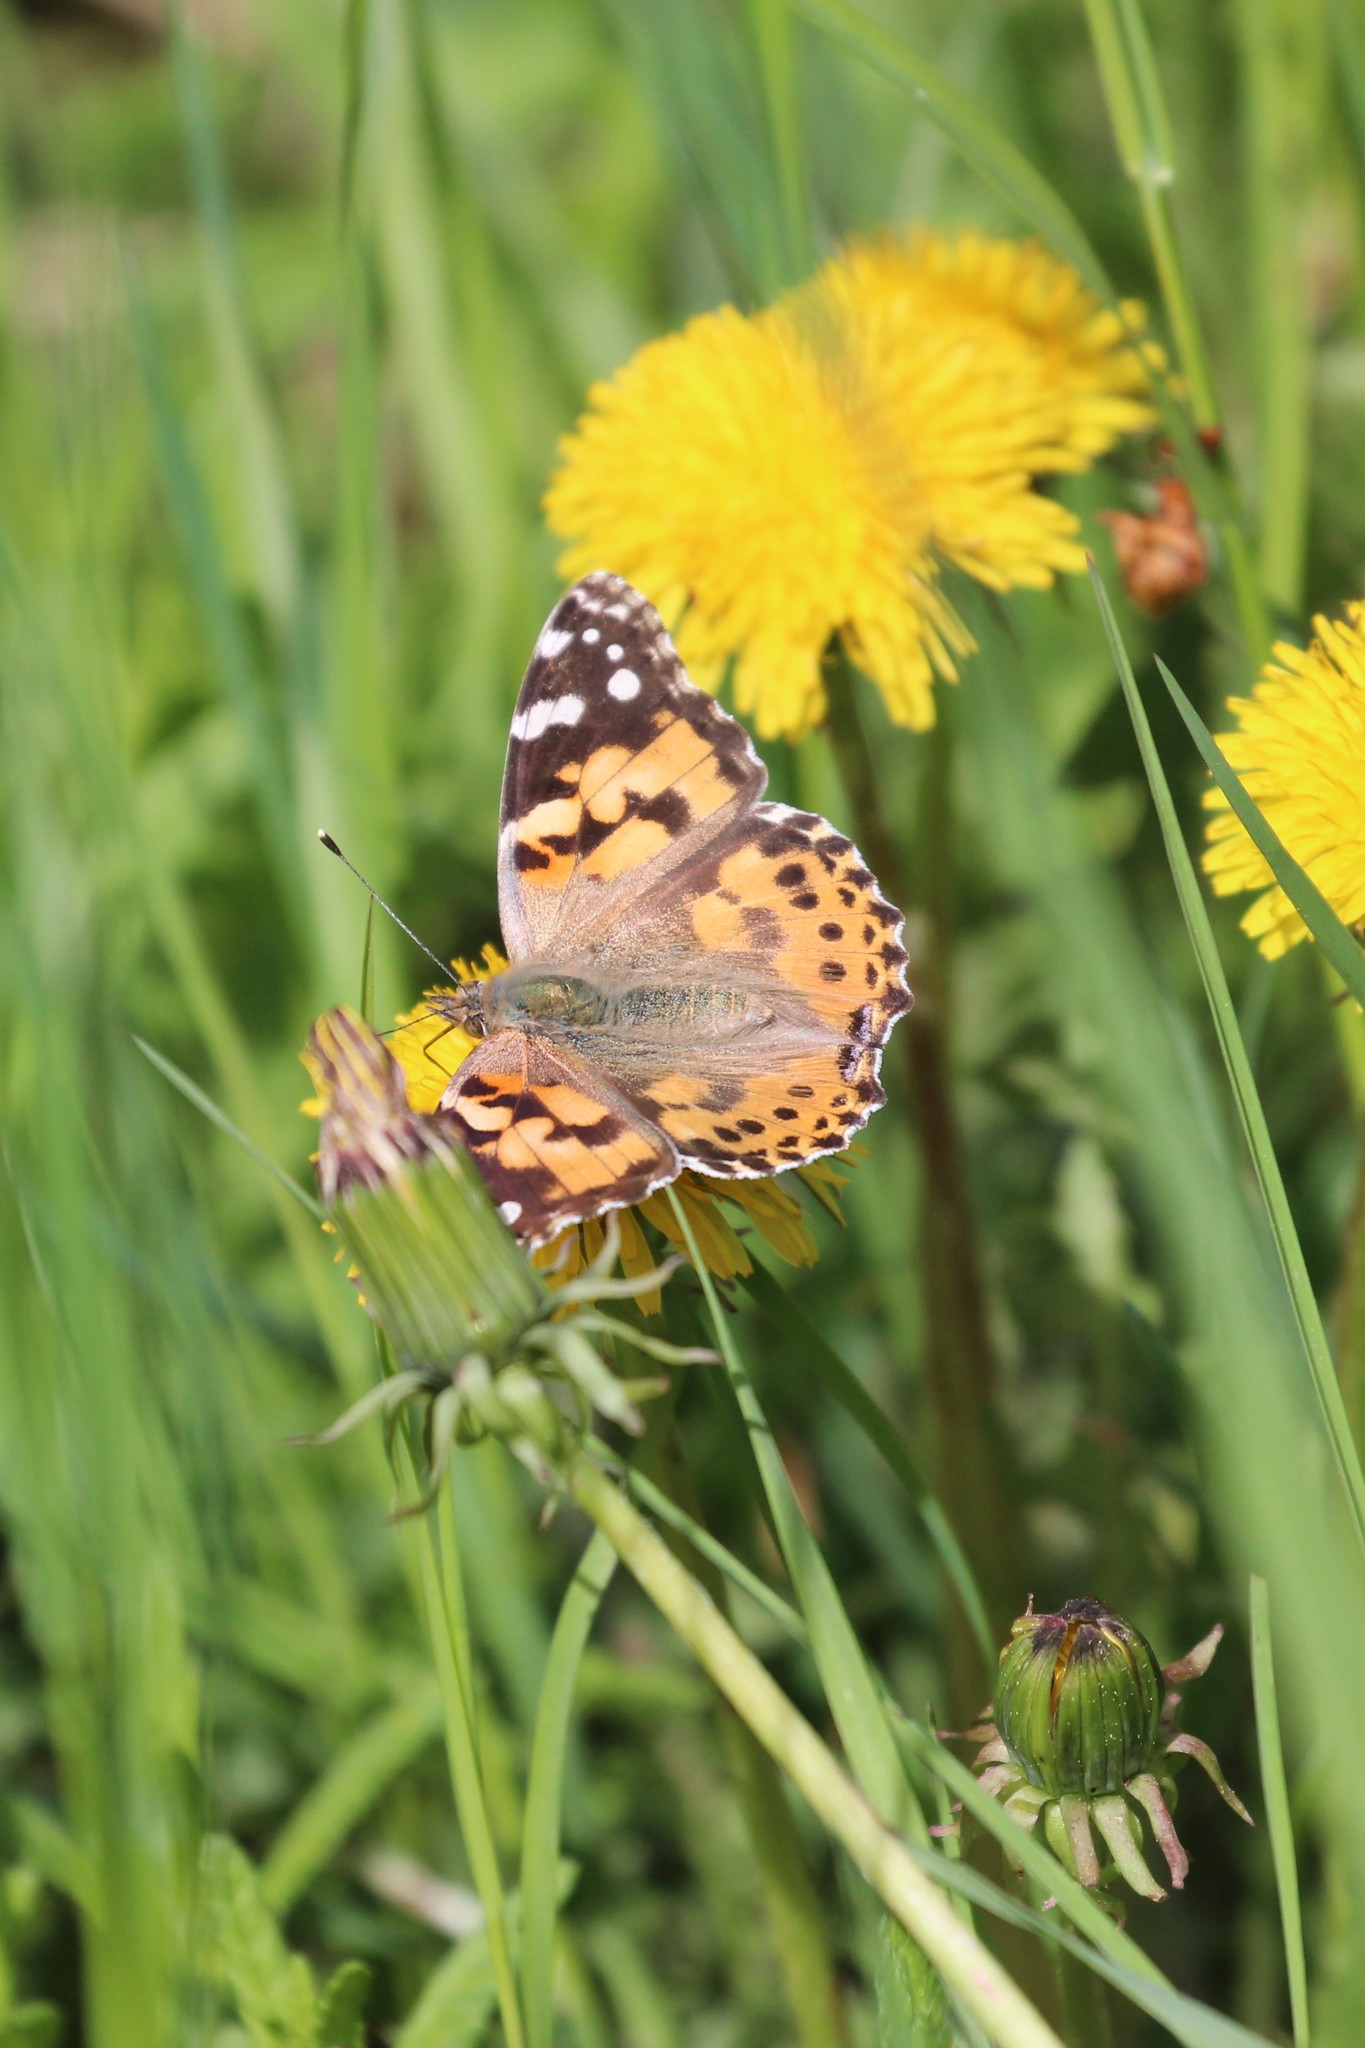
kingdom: Animalia
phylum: Arthropoda
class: Insecta
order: Lepidoptera
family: Nymphalidae
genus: Vanessa
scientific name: Vanessa cardui
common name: Painted lady
